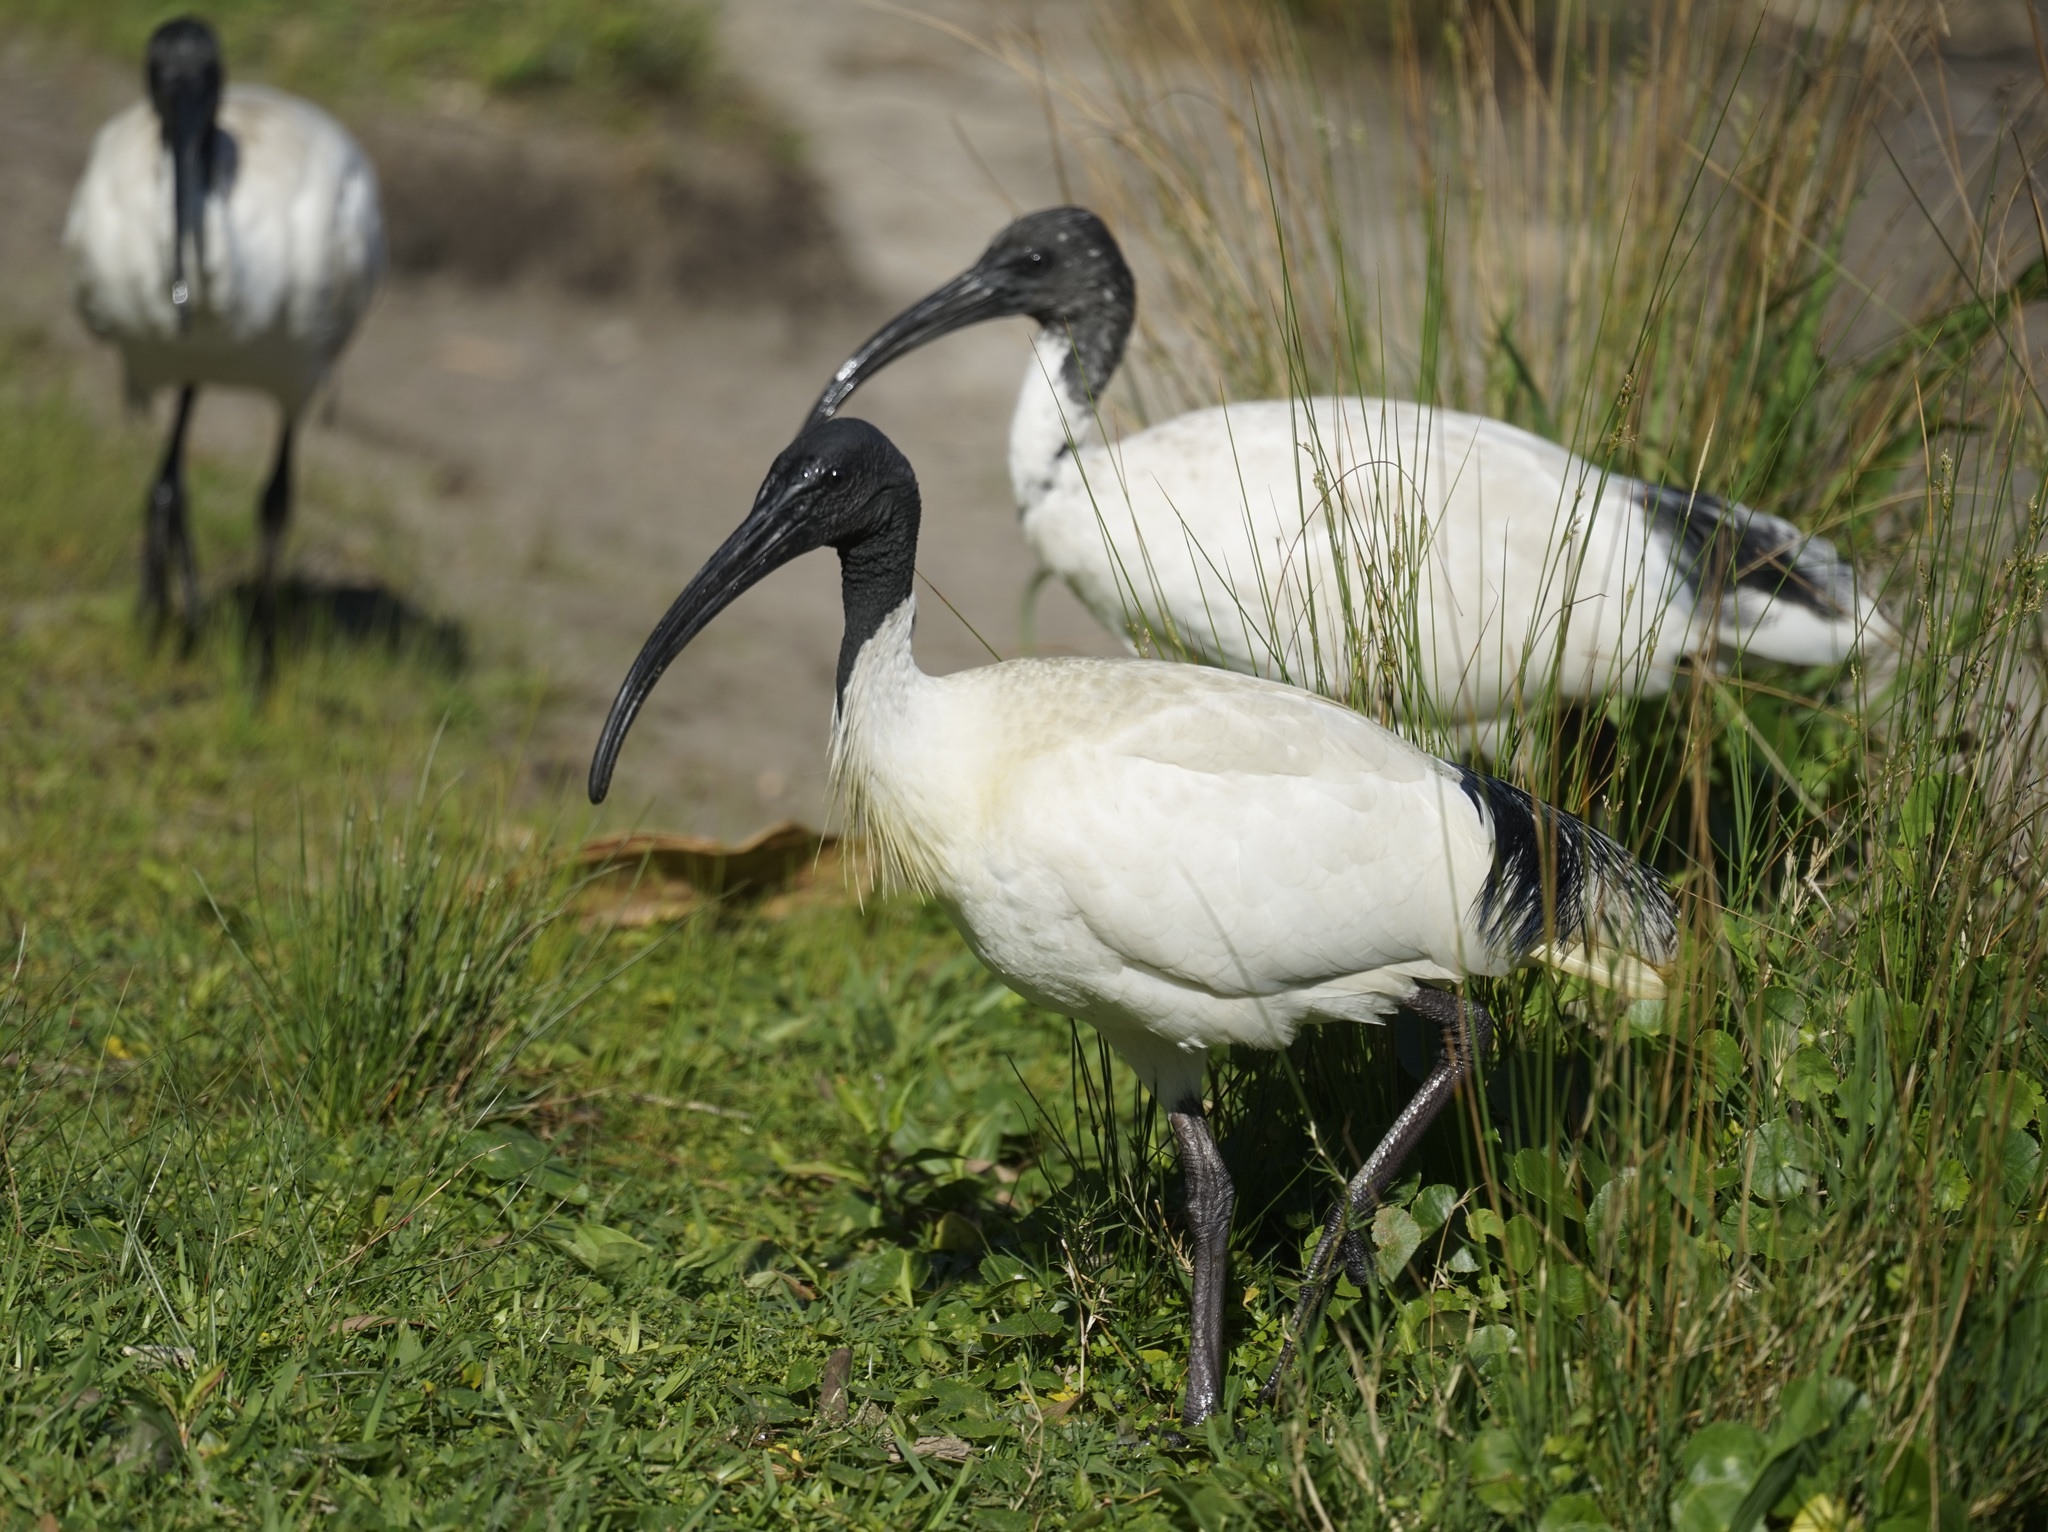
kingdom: Animalia
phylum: Chordata
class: Aves
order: Pelecaniformes
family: Threskiornithidae
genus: Threskiornis
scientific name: Threskiornis molucca
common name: Australian white ibis
